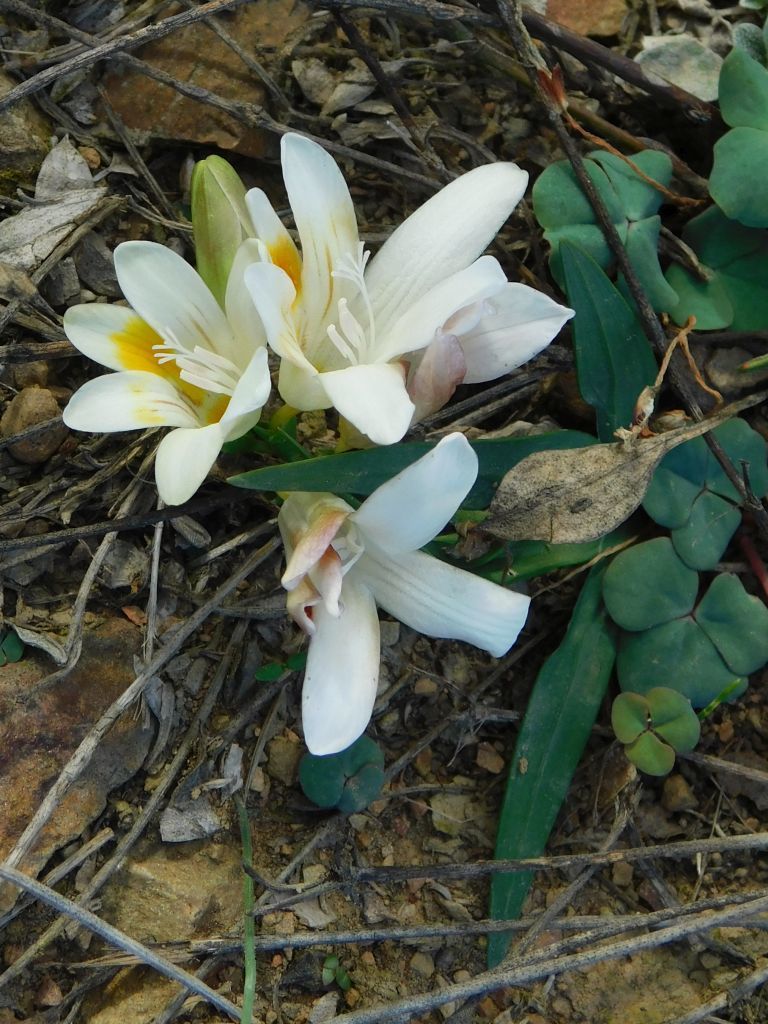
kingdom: Plantae
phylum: Tracheophyta
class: Liliopsida
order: Asparagales
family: Iridaceae
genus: Freesia
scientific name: Freesia caryophyllacea
